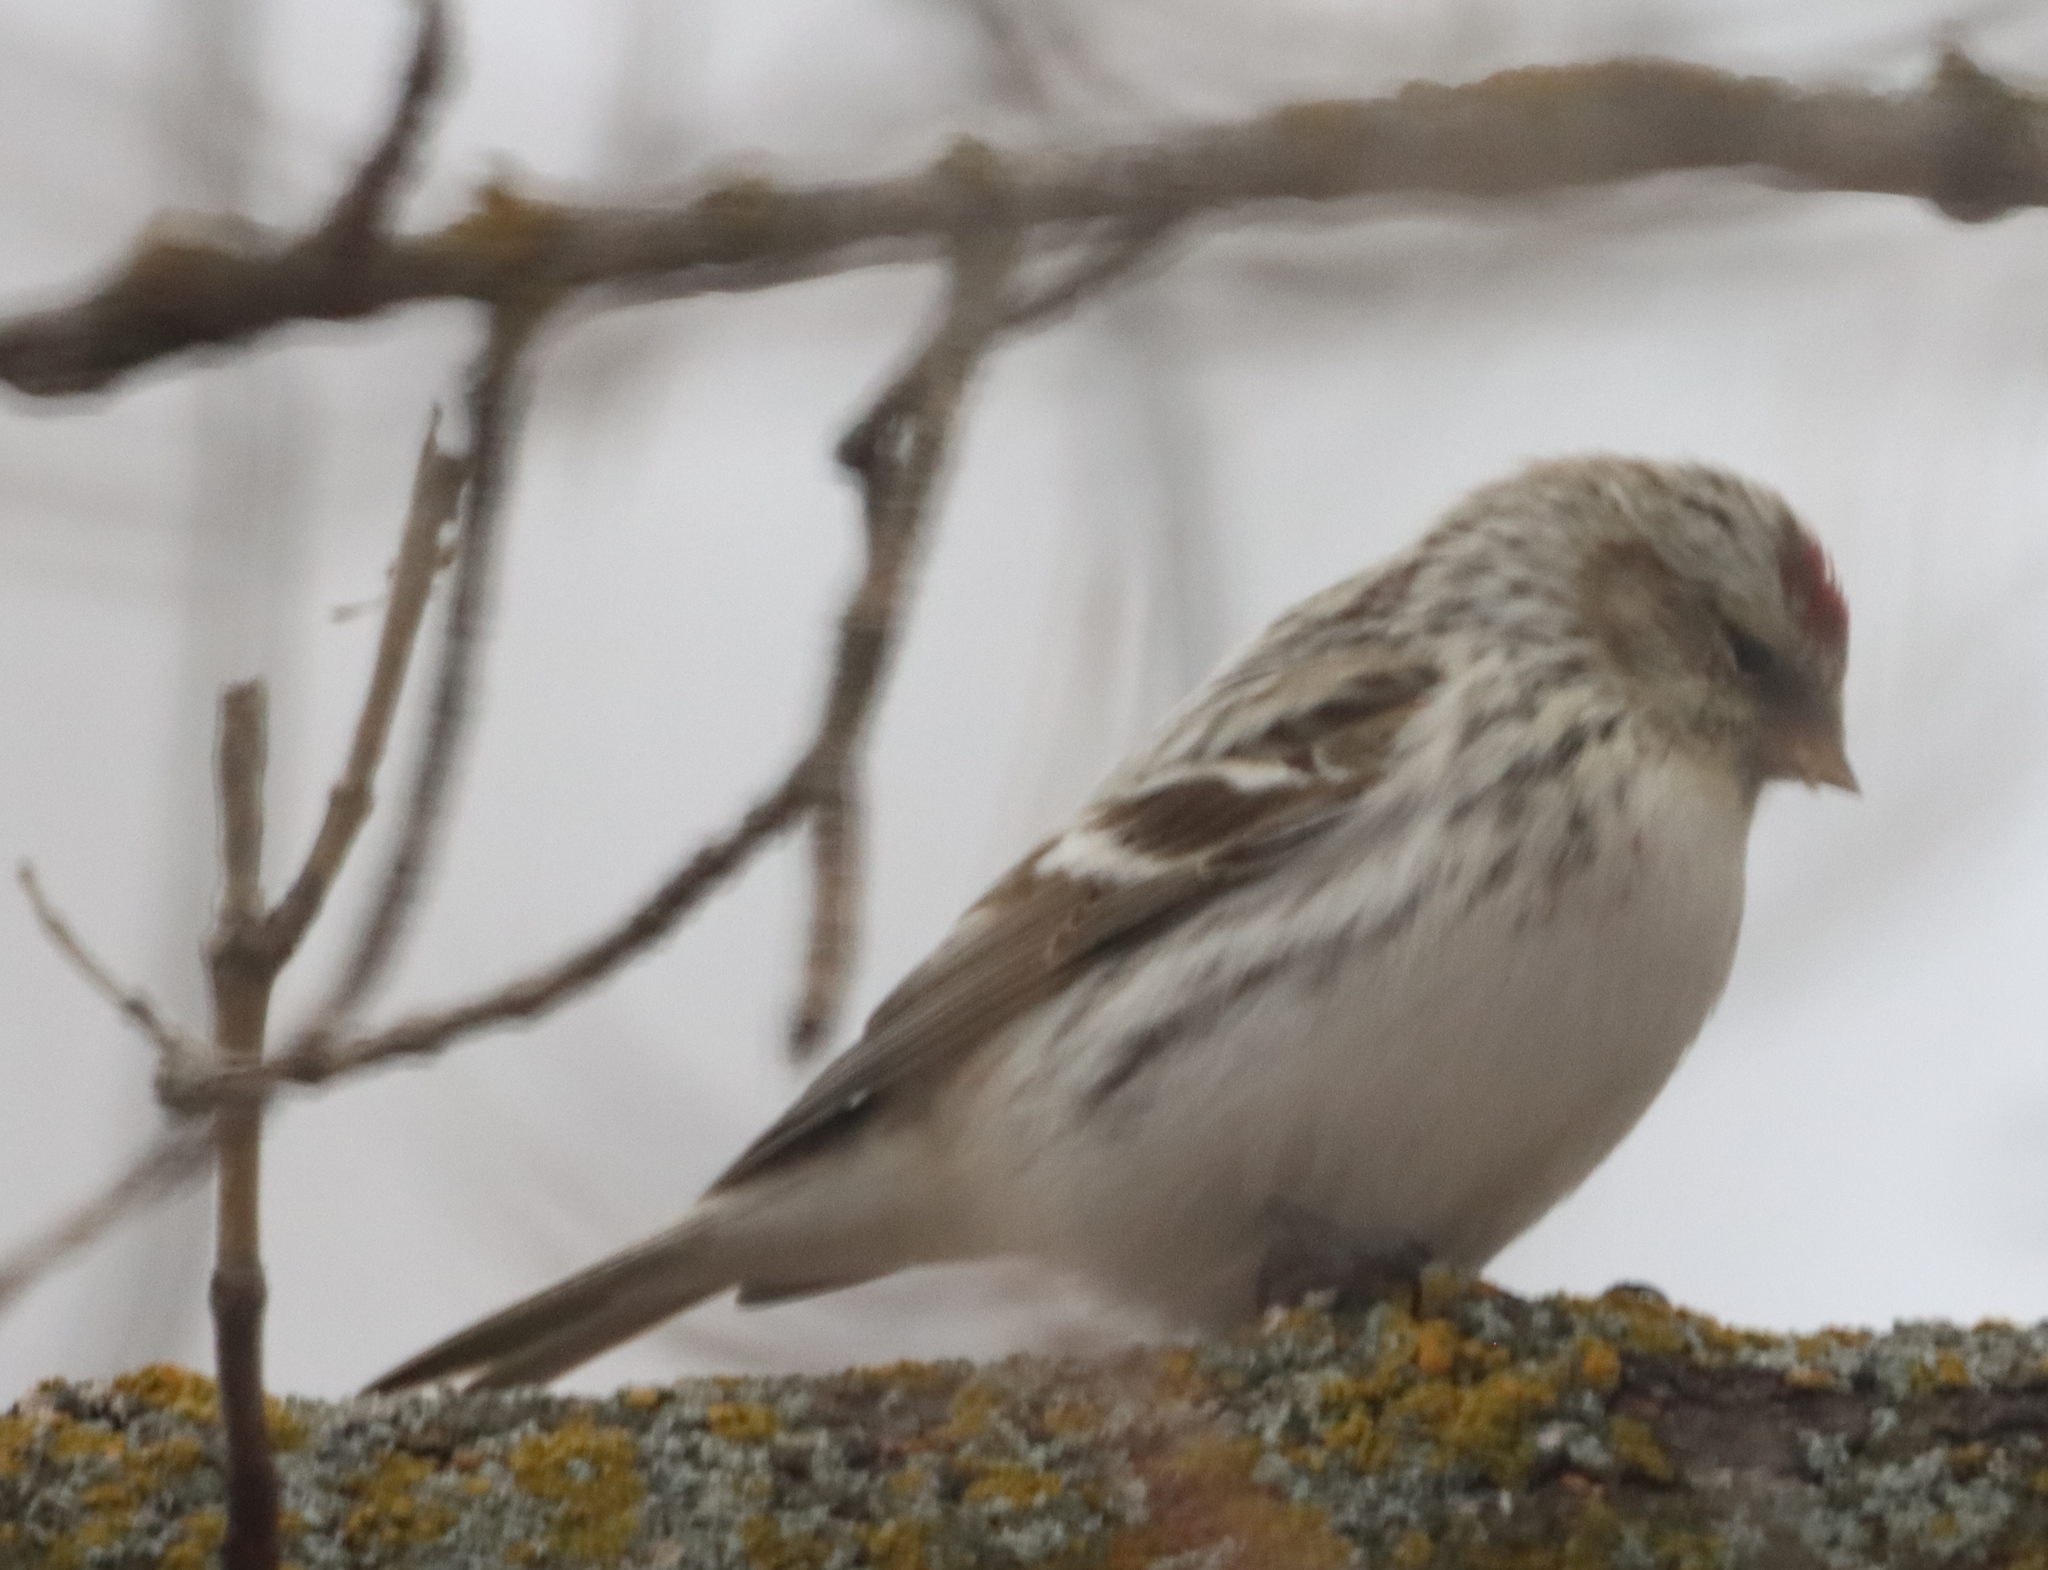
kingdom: Animalia
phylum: Chordata
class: Aves
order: Passeriformes
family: Fringillidae
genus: Acanthis
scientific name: Acanthis hornemanni
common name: Arctic redpoll
